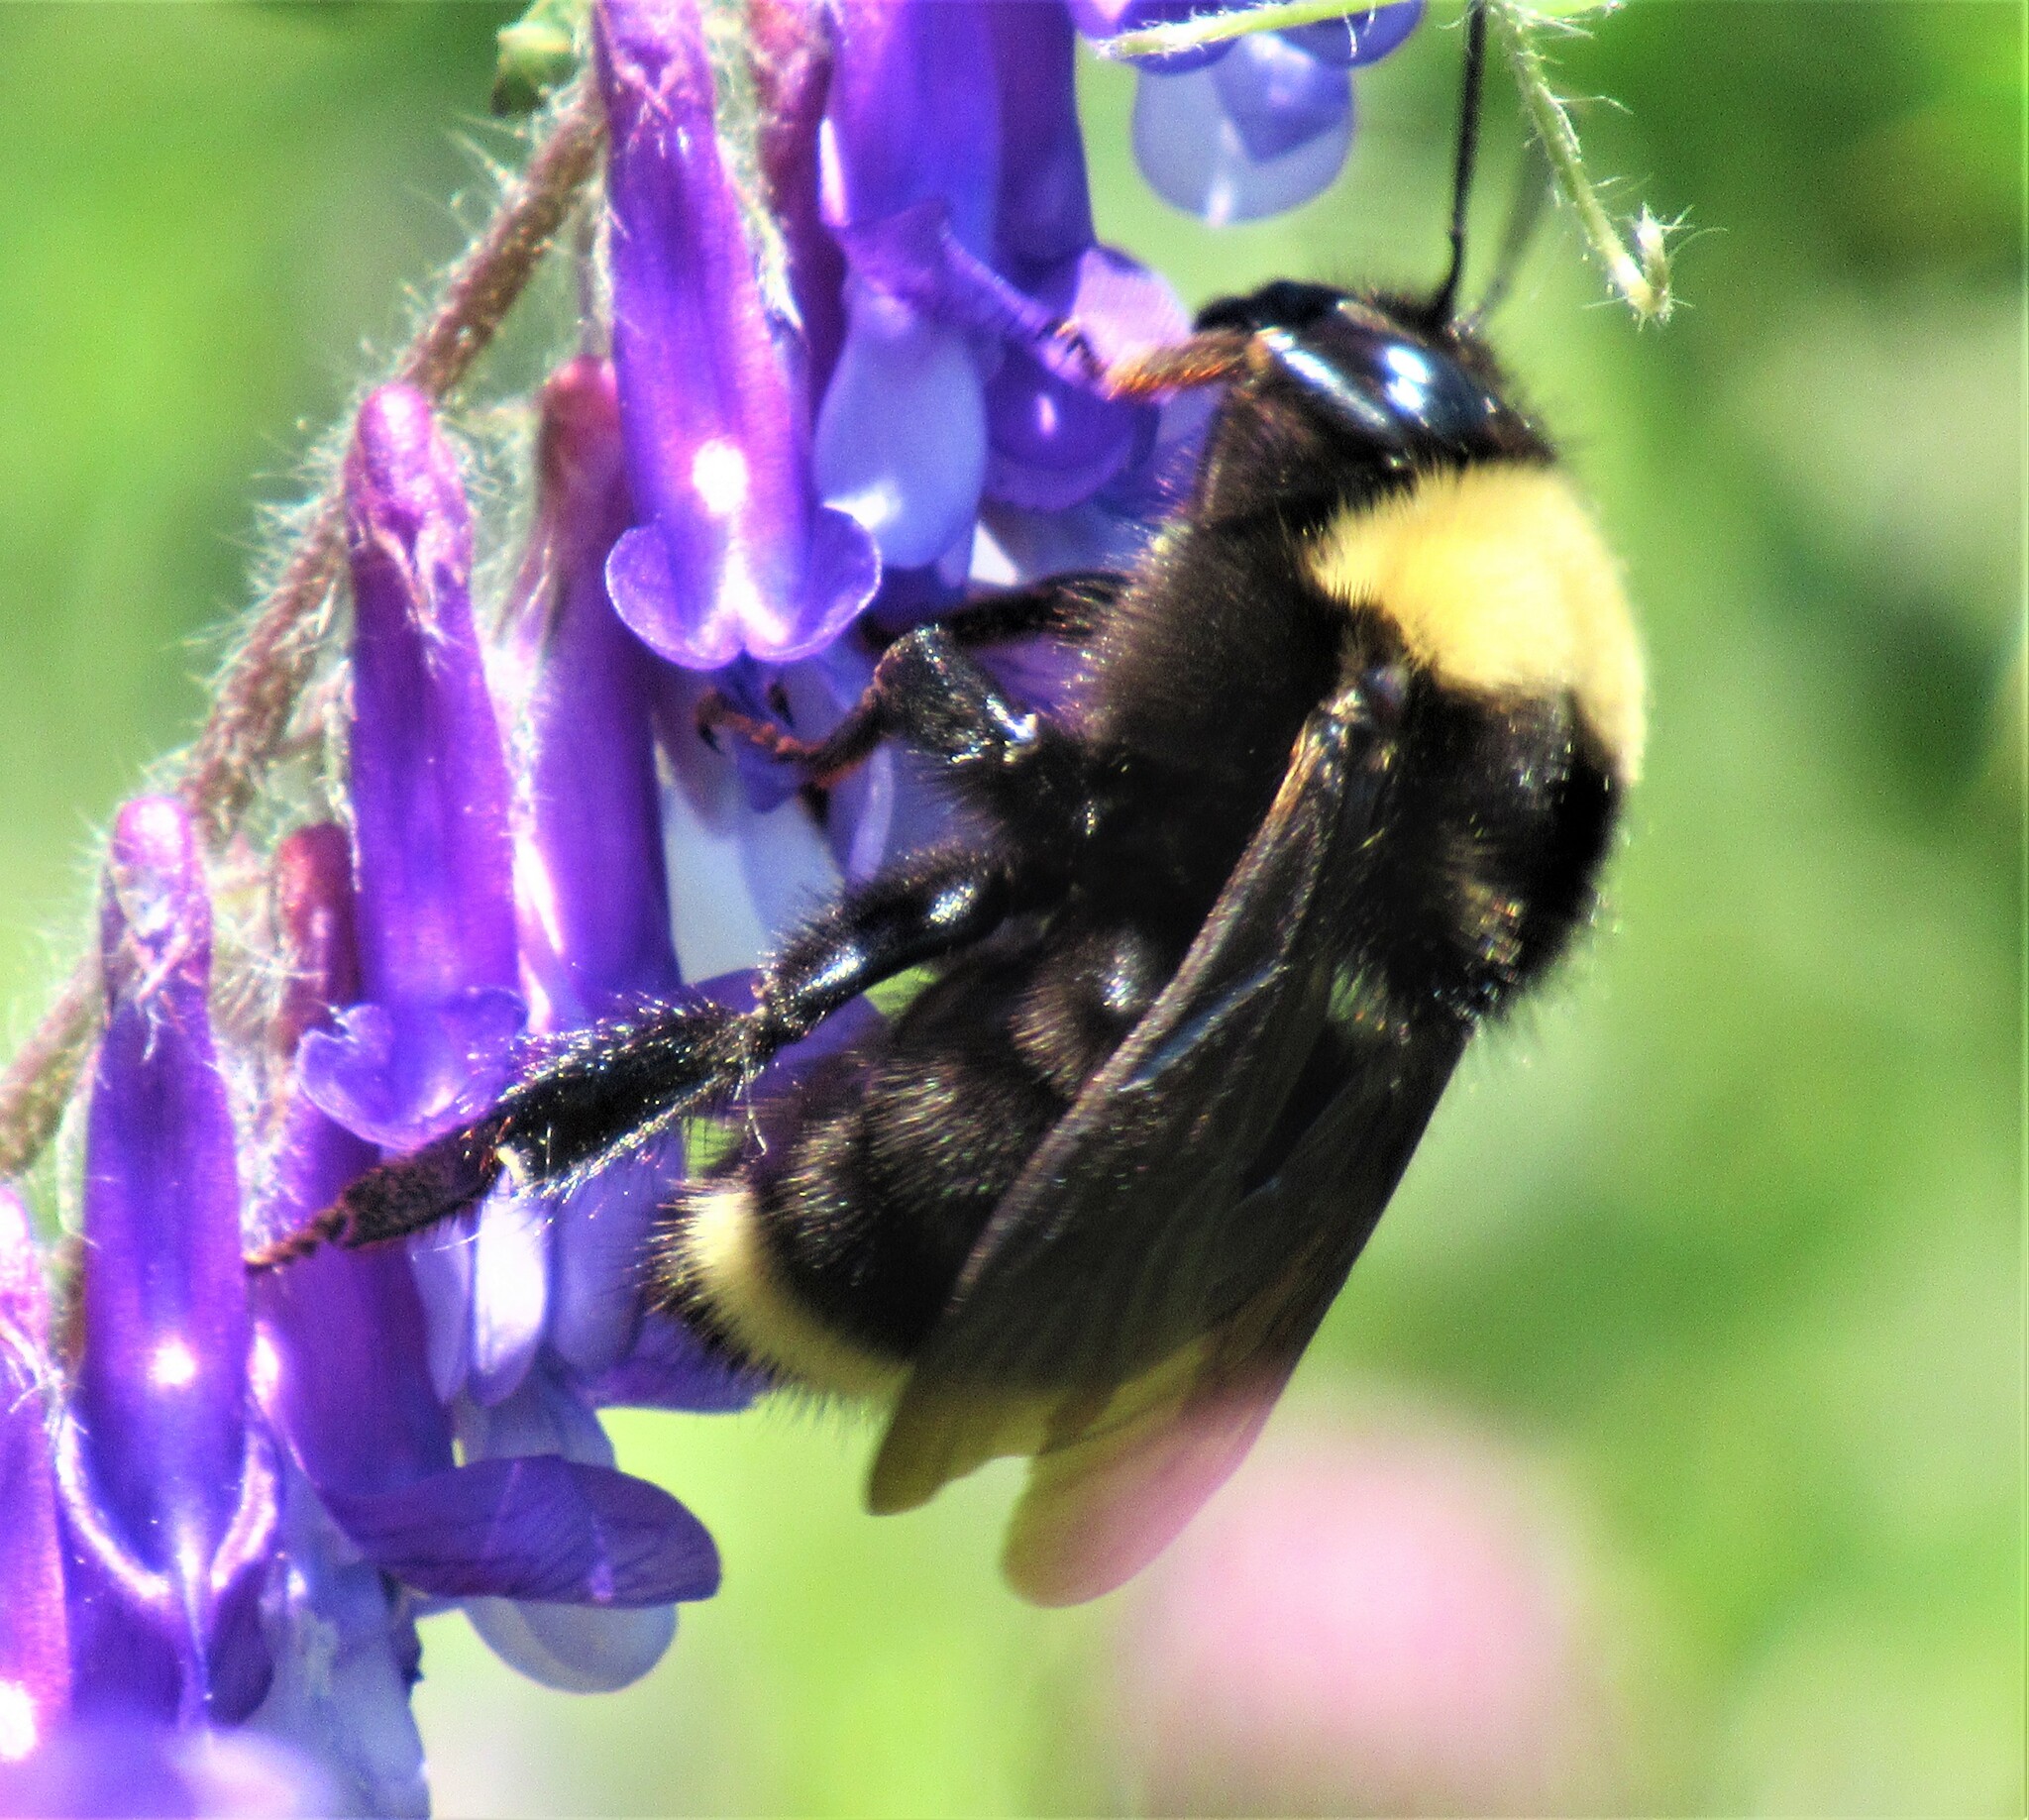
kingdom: Animalia
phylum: Arthropoda
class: Insecta
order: Hymenoptera
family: Apidae
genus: Bombus
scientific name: Bombus californicus
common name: California bumble bee
